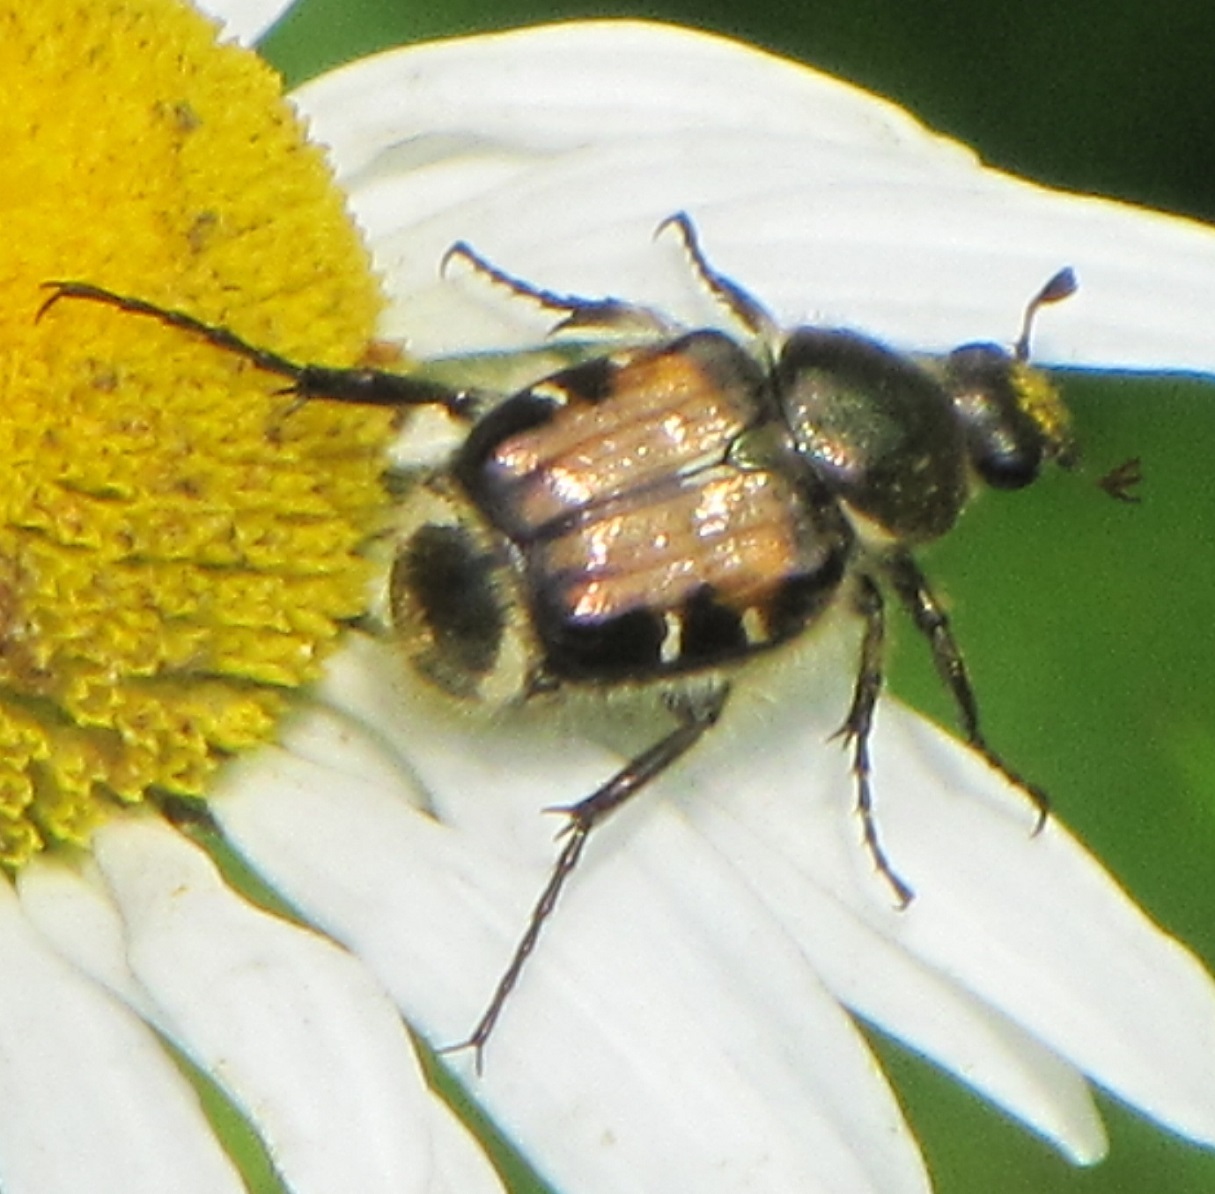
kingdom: Animalia
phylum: Arthropoda
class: Insecta
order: Coleoptera
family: Scarabaeidae
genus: Trichiotinus
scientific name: Trichiotinus affinis
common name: Hairy flower scarab
